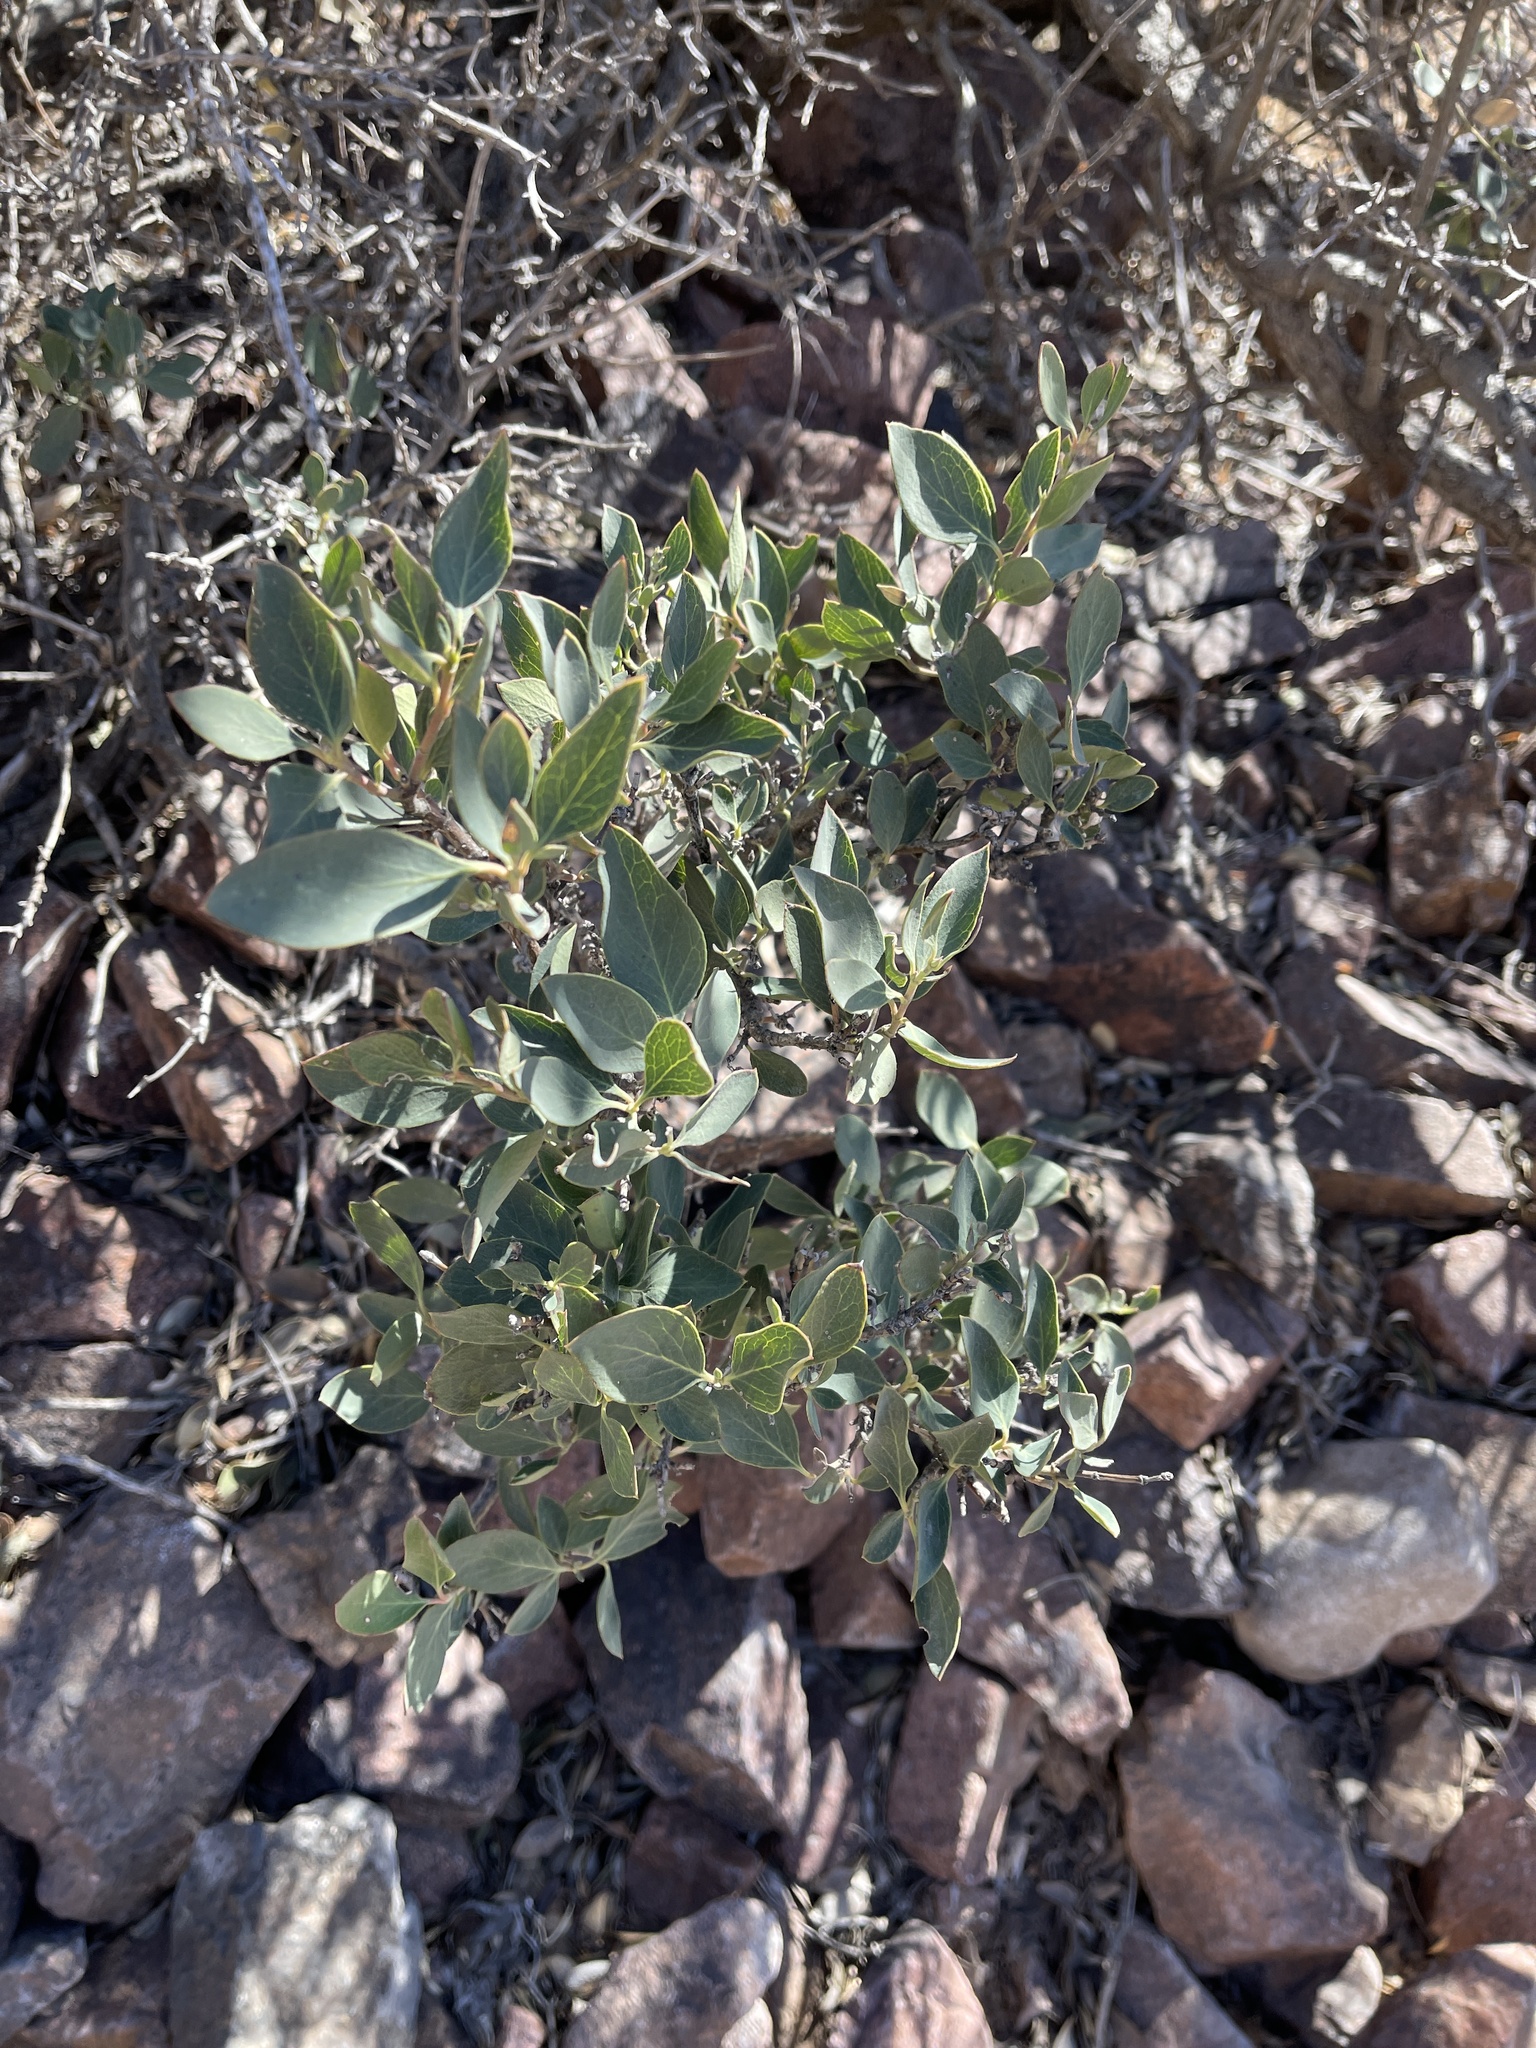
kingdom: Plantae
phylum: Tracheophyta
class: Magnoliopsida
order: Garryales
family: Garryaceae
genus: Garrya
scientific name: Garrya wrightii
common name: Wright's silktassel
